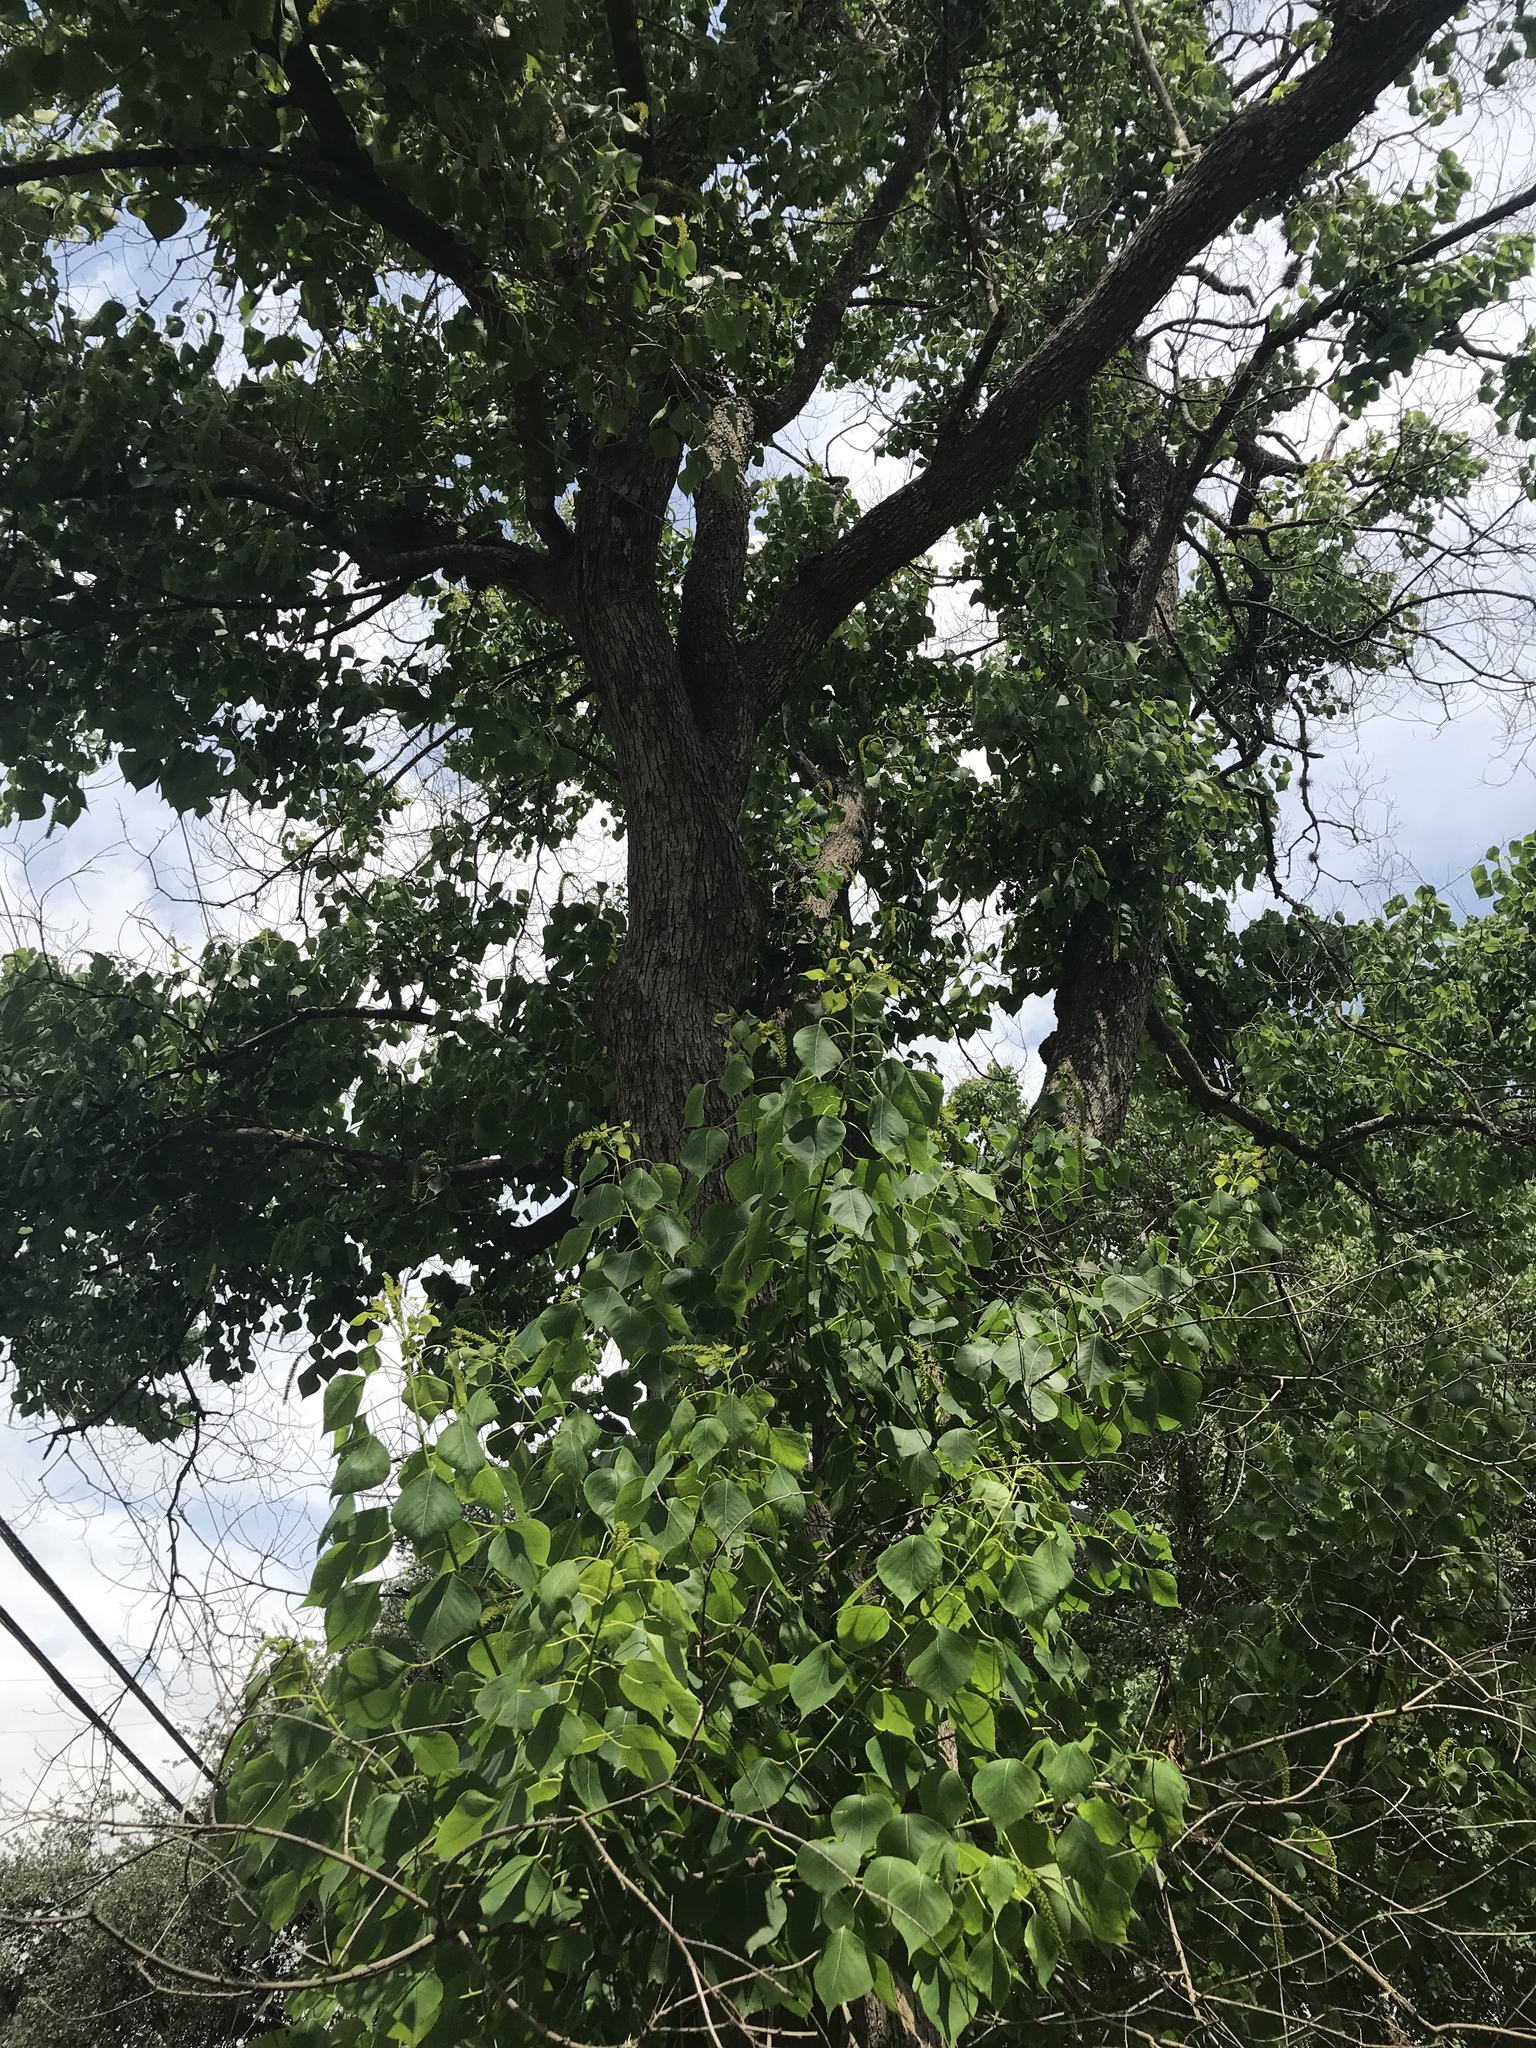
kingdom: Plantae
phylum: Tracheophyta
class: Magnoliopsida
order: Malpighiales
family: Euphorbiaceae
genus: Triadica
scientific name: Triadica sebifera
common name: Chinese tallow
